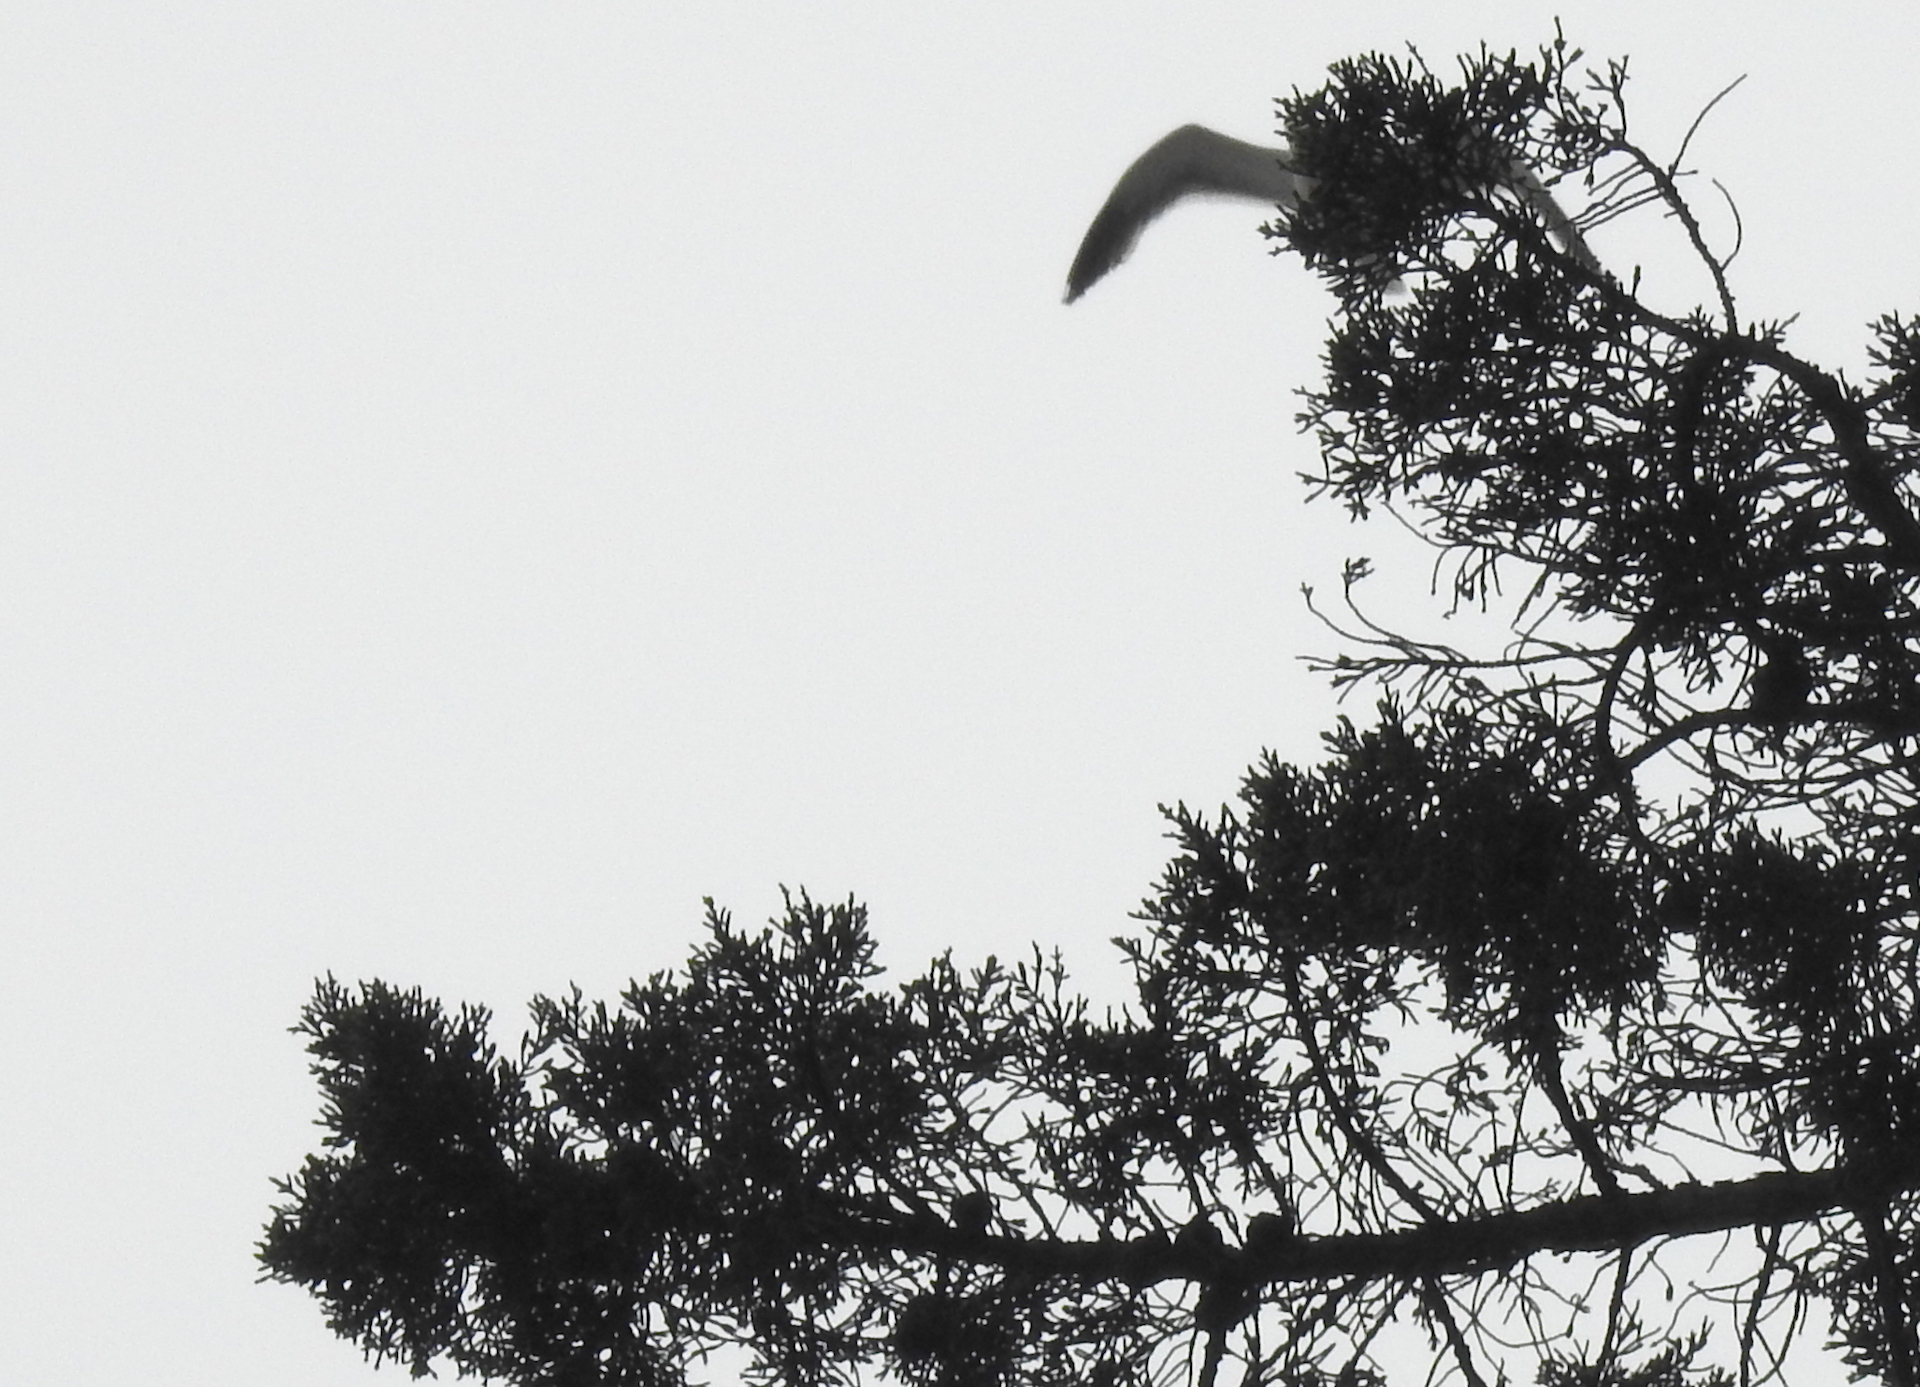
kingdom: Animalia
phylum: Chordata
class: Aves
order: Charadriiformes
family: Laridae
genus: Larus
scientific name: Larus occidentalis
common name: Western gull
